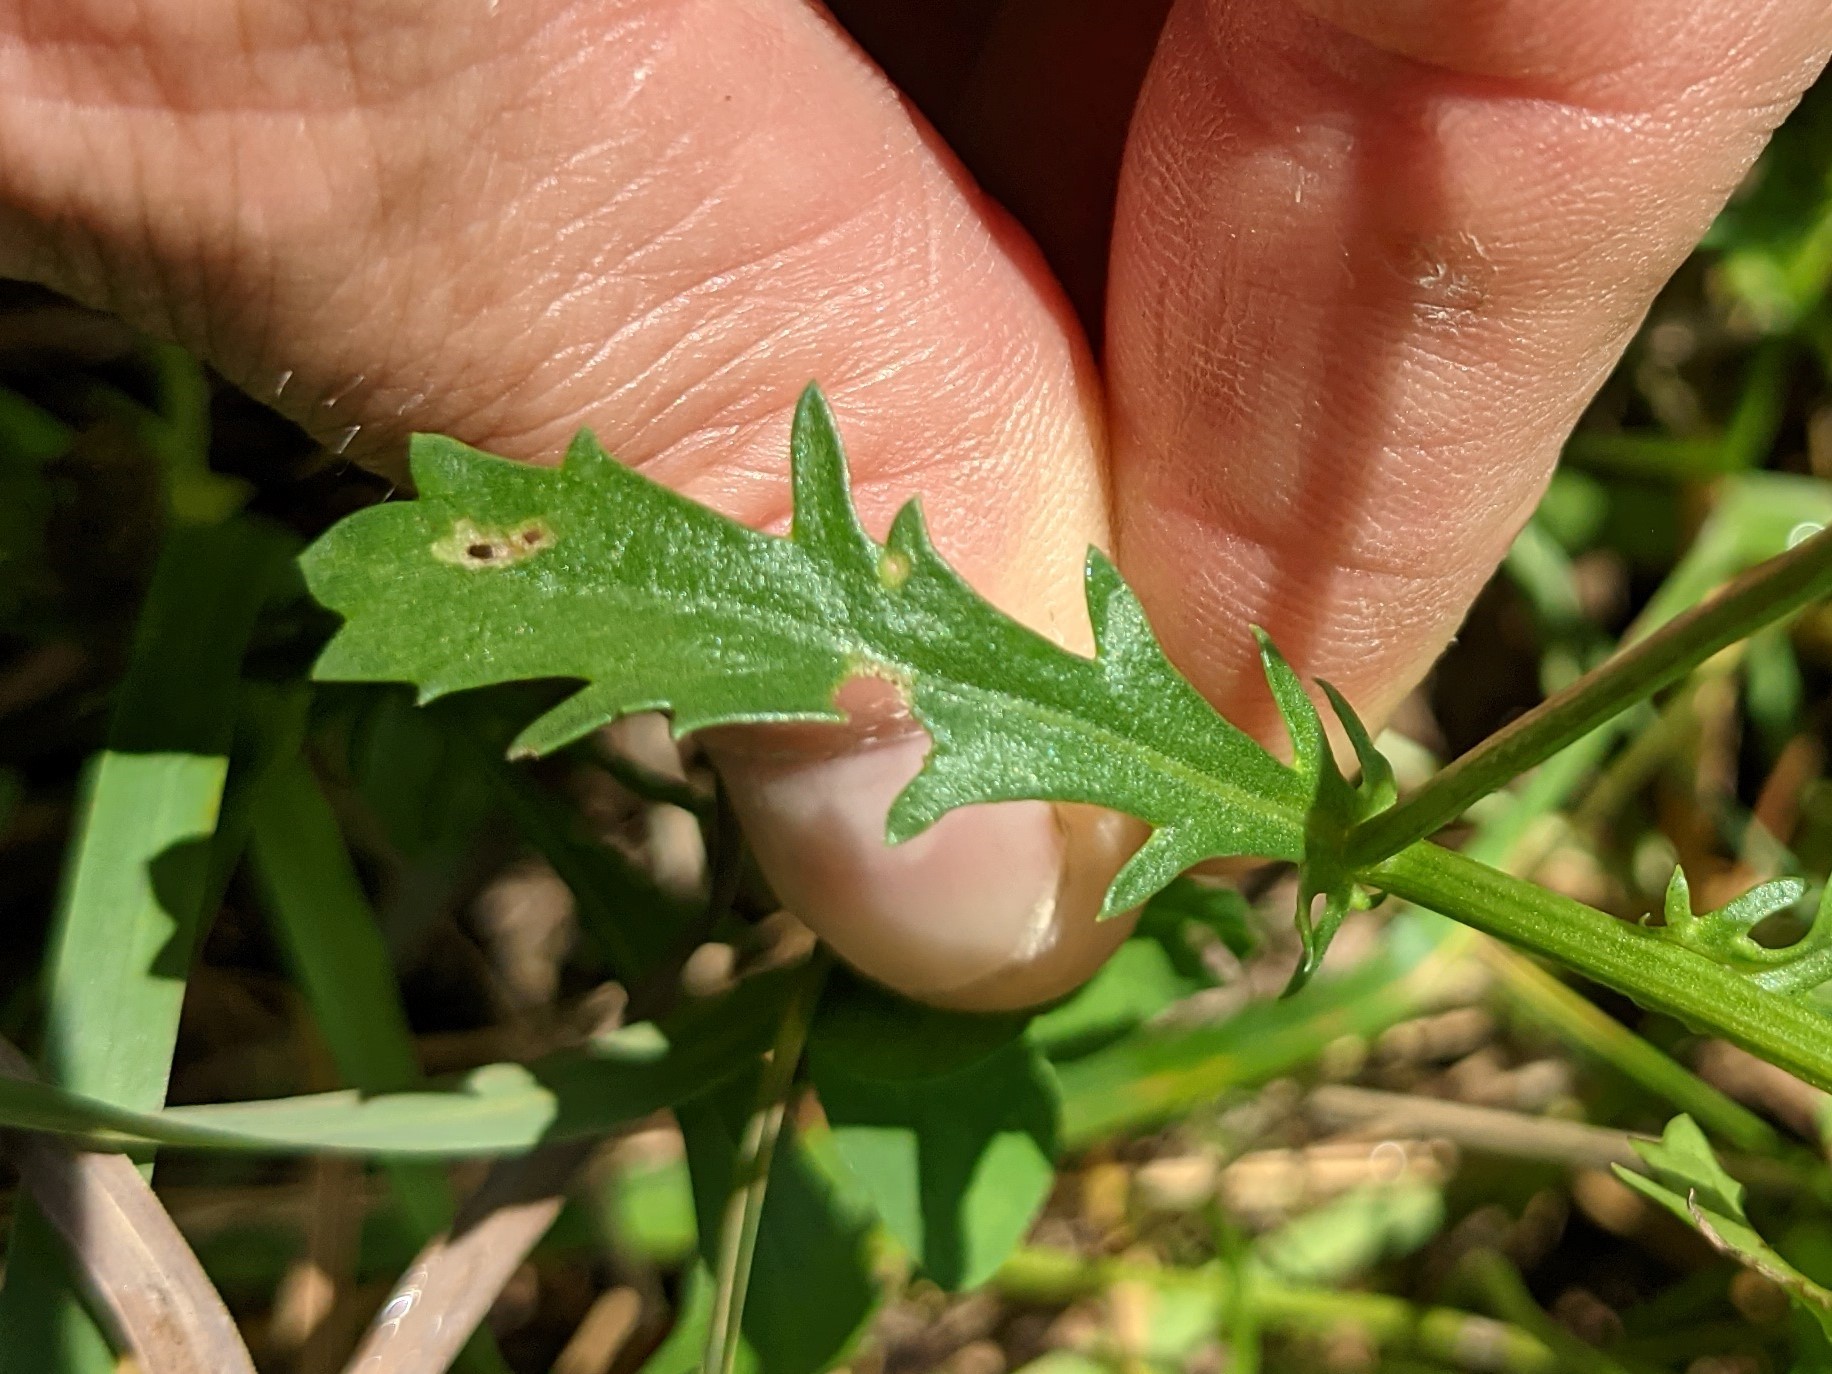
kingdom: Plantae
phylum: Tracheophyta
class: Magnoliopsida
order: Asterales
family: Asteraceae
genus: Leucanthemum
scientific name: Leucanthemum vulgare
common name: Oxeye daisy
